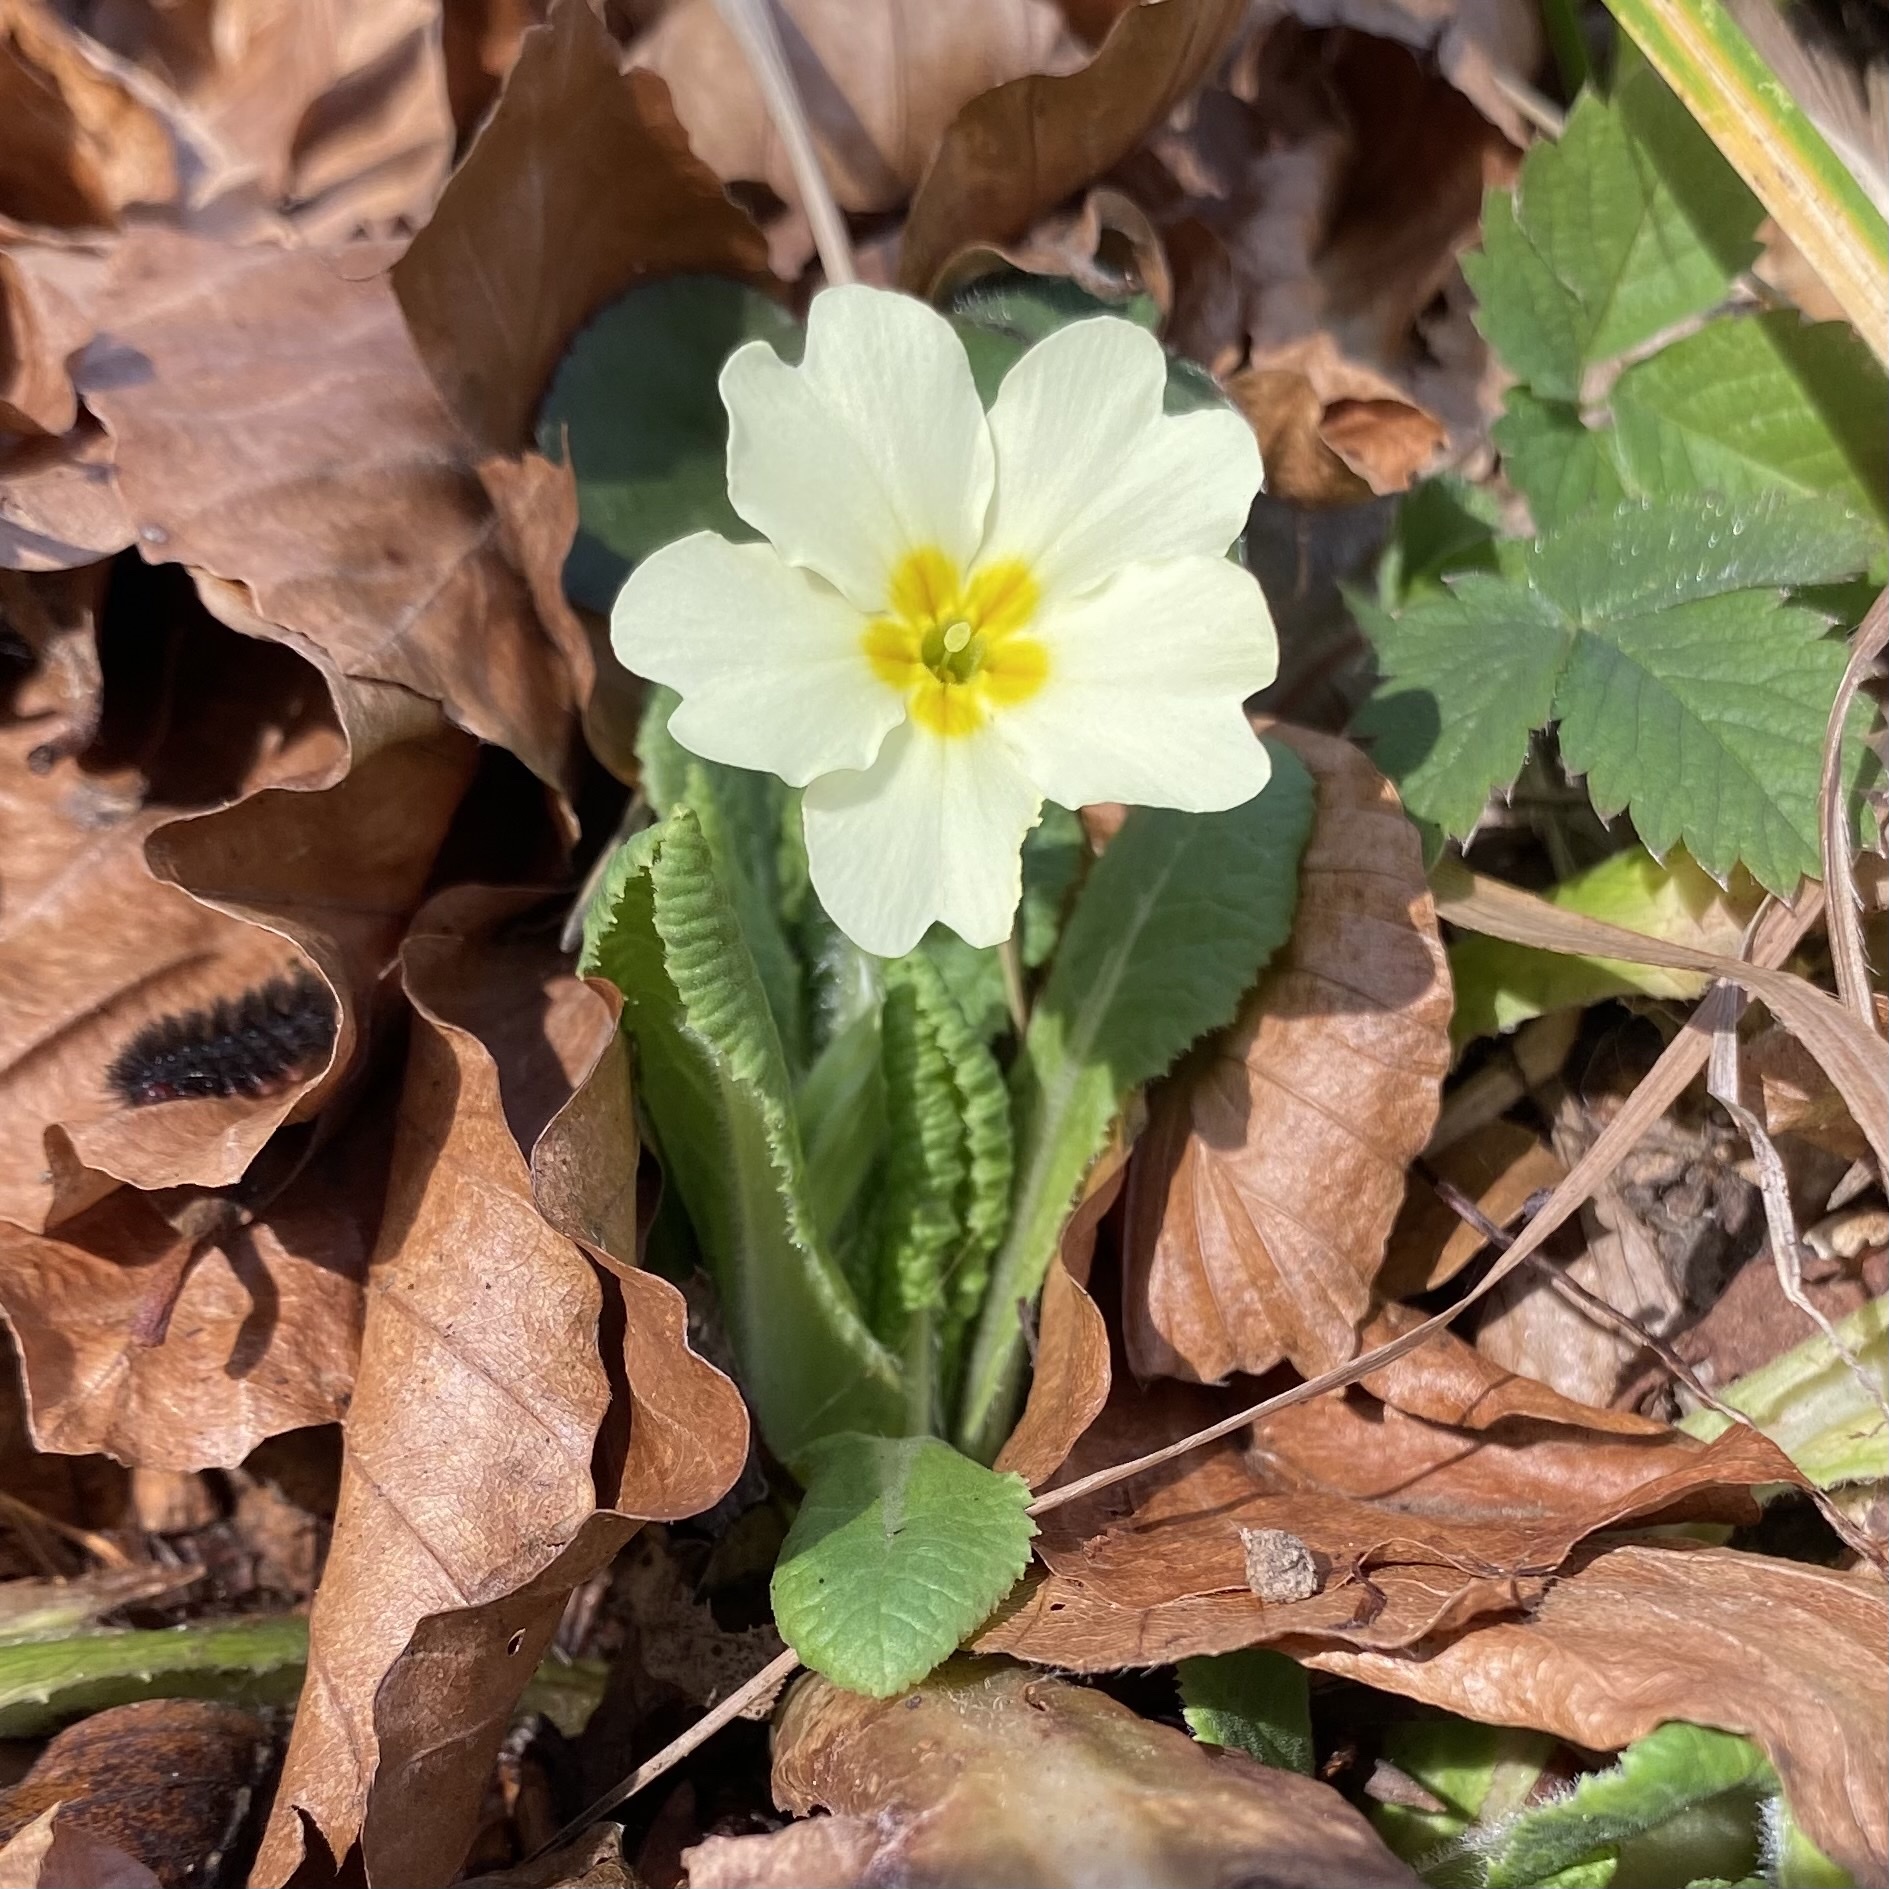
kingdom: Plantae
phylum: Tracheophyta
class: Magnoliopsida
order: Ericales
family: Primulaceae
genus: Primula
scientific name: Primula vulgaris
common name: Primrose
